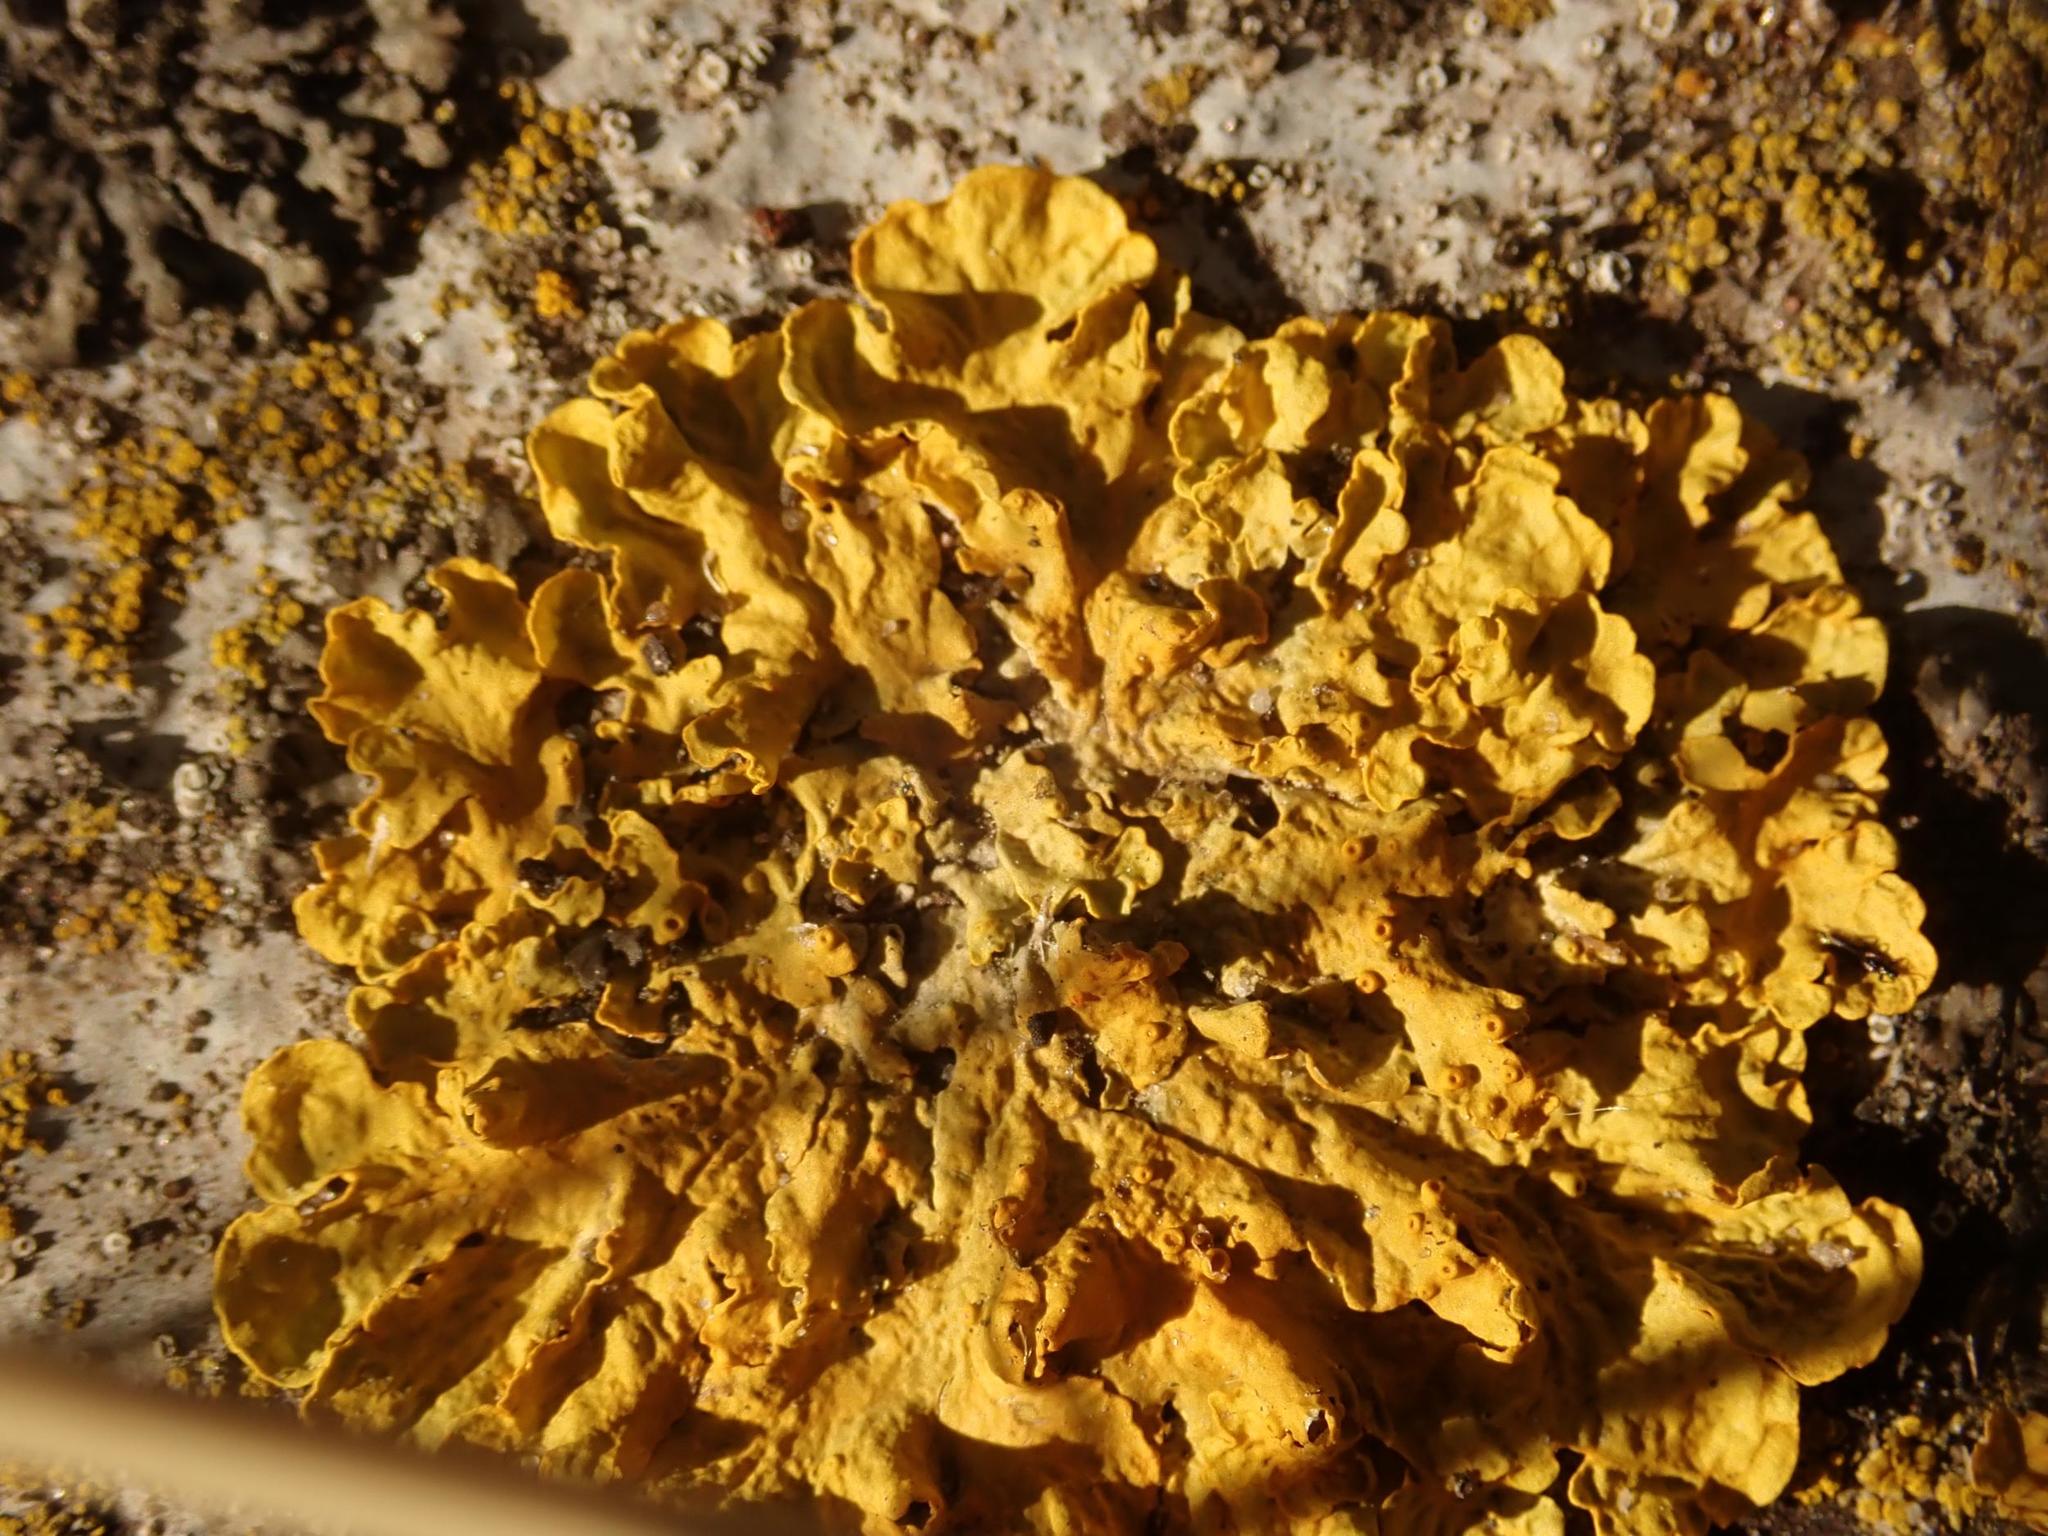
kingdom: Fungi
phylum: Ascomycota
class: Lecanoromycetes
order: Teloschistales
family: Teloschistaceae
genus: Xanthoria
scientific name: Xanthoria parietina
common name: Common orange lichen
